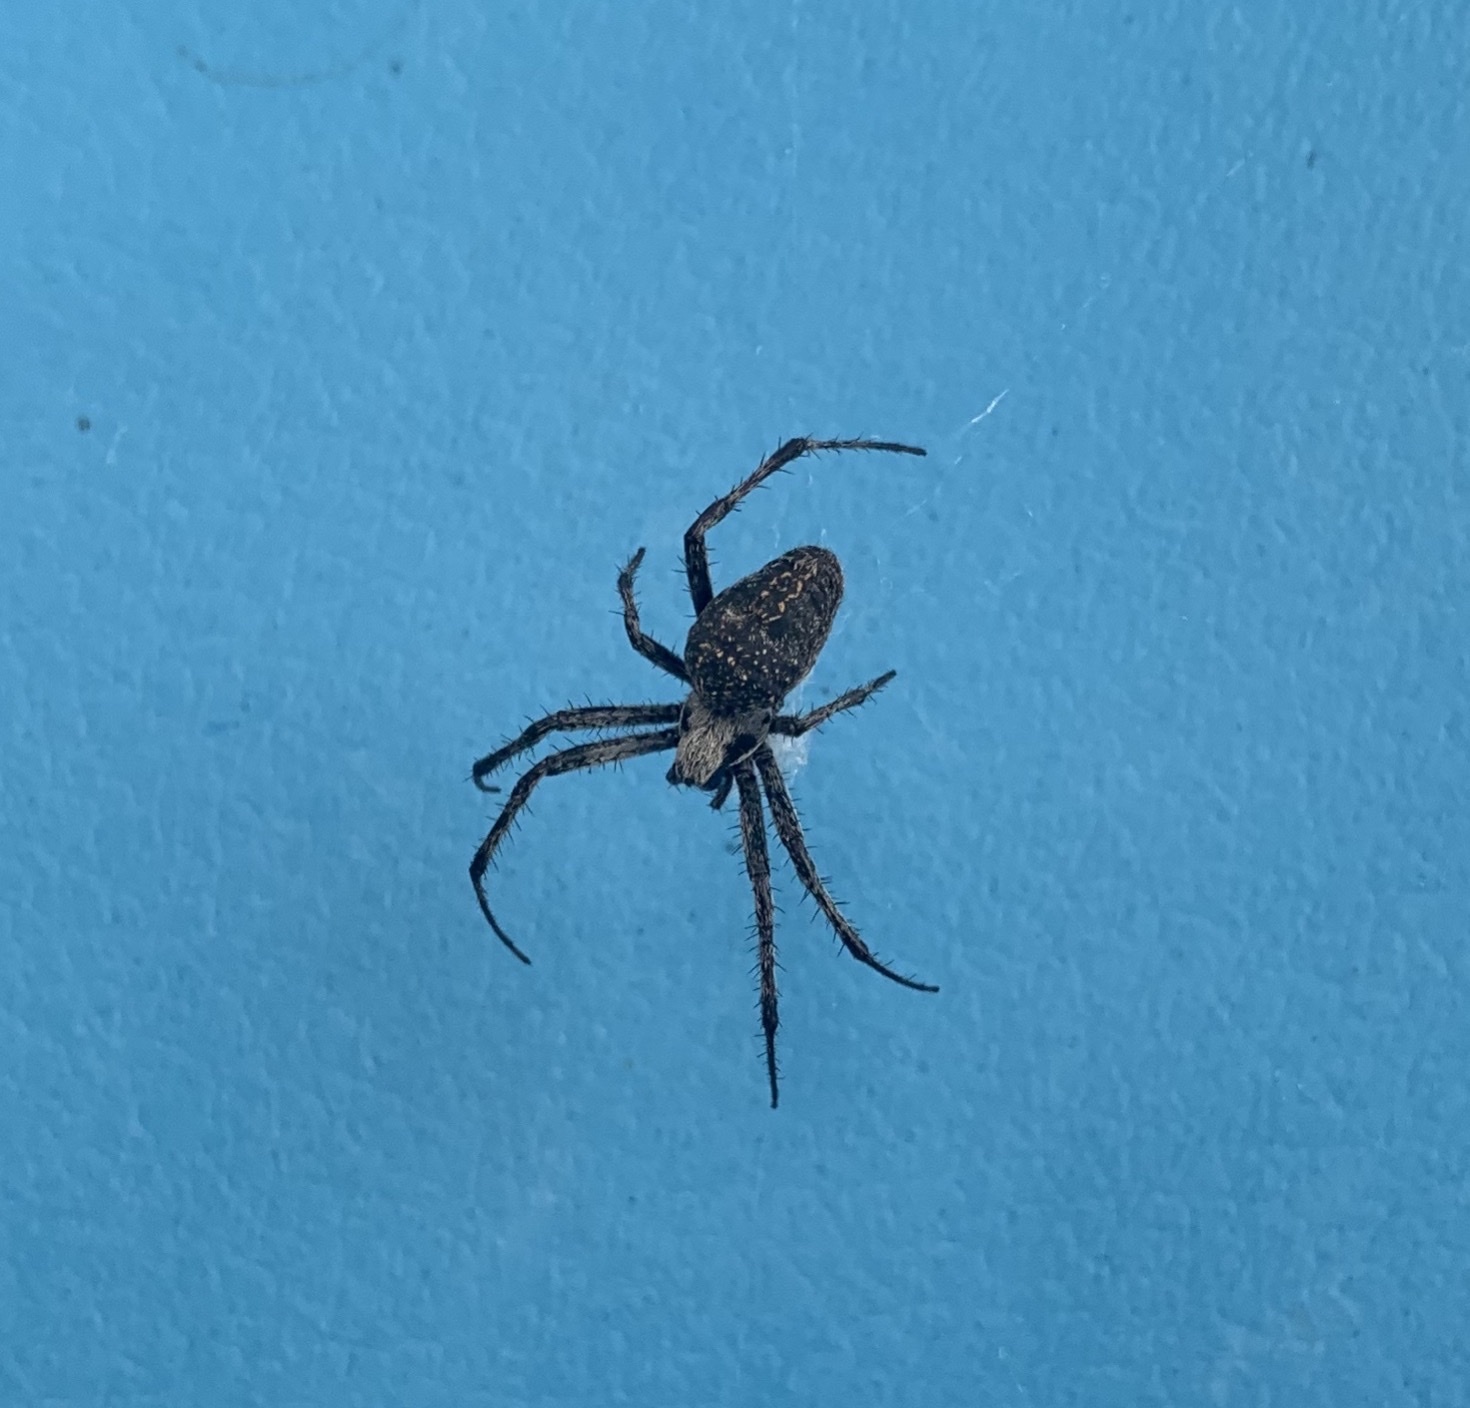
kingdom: Animalia
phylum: Arthropoda
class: Arachnida
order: Araneae
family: Araneidae
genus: Neoscona
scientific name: Neoscona oaxacensis
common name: Orb weavers
